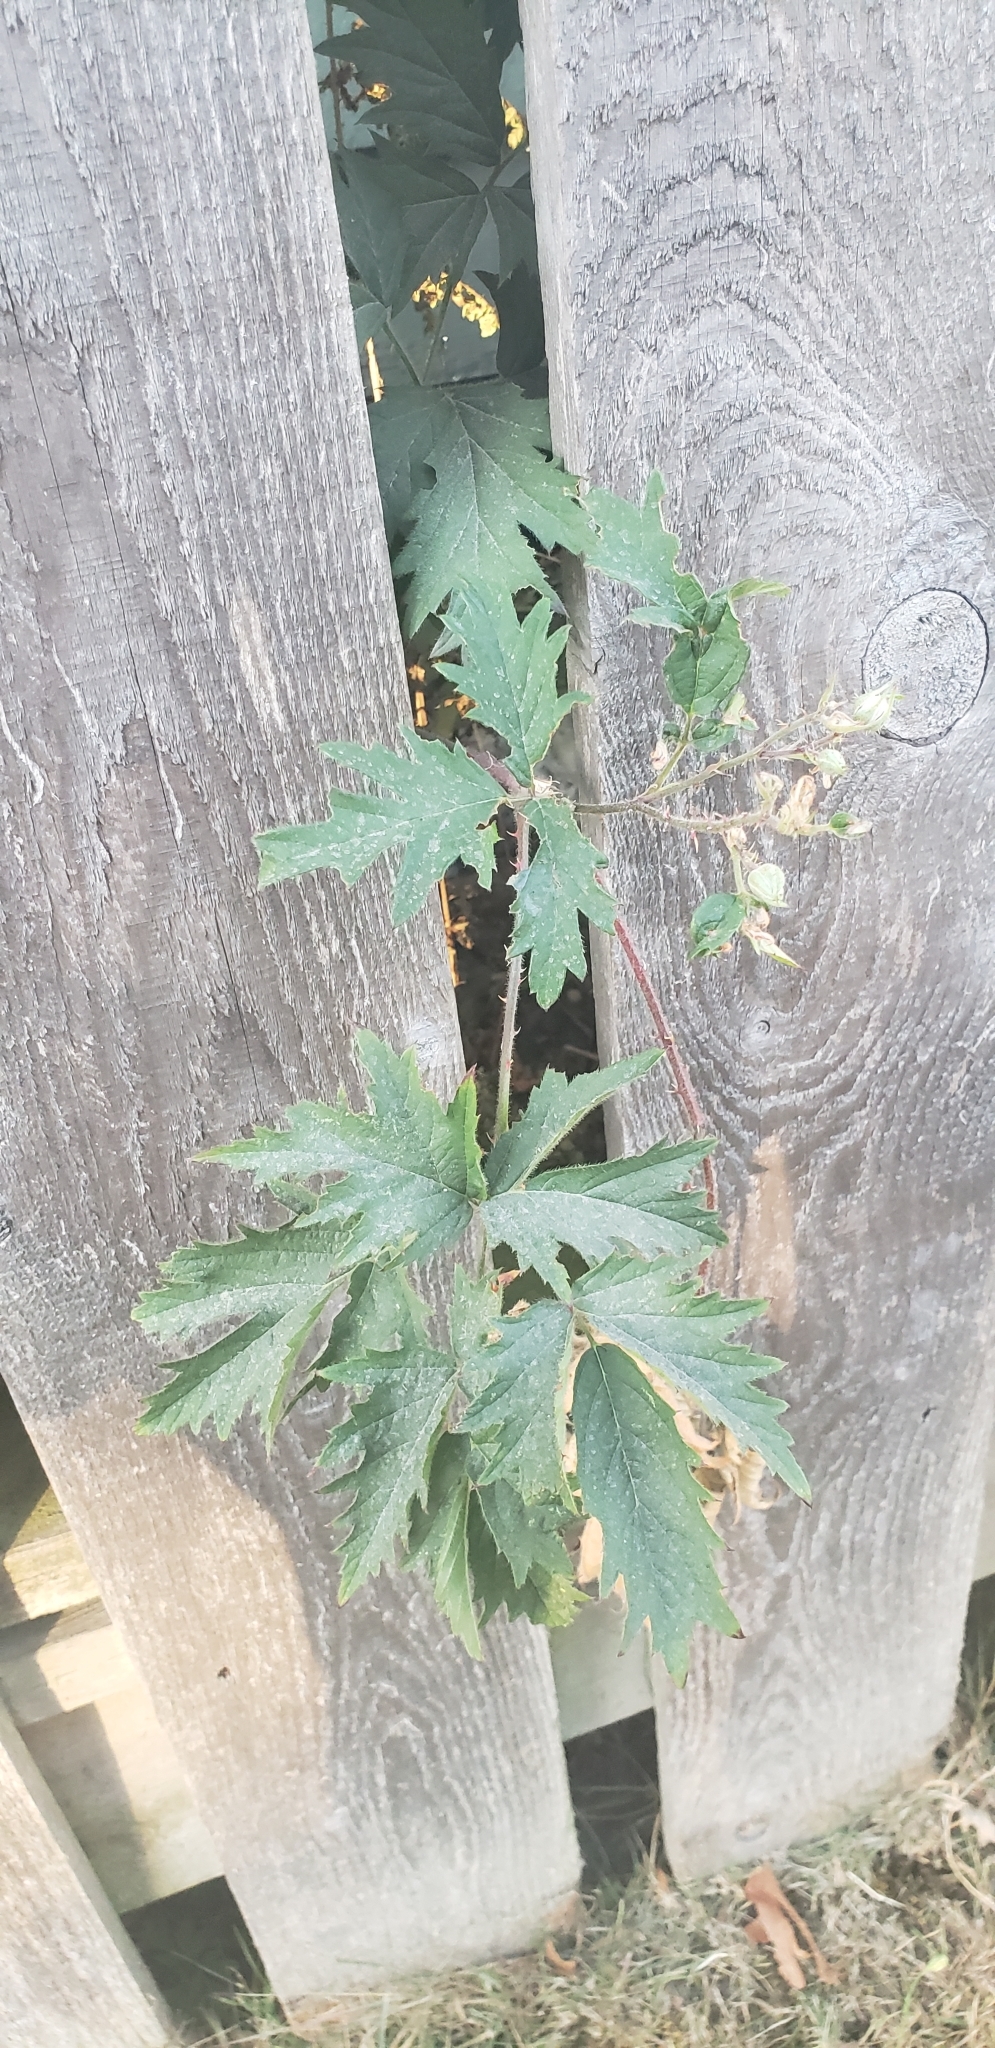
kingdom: Plantae
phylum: Tracheophyta
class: Magnoliopsida
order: Rosales
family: Rosaceae
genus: Rubus
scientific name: Rubus laciniatus
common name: Evergreen blackberry
